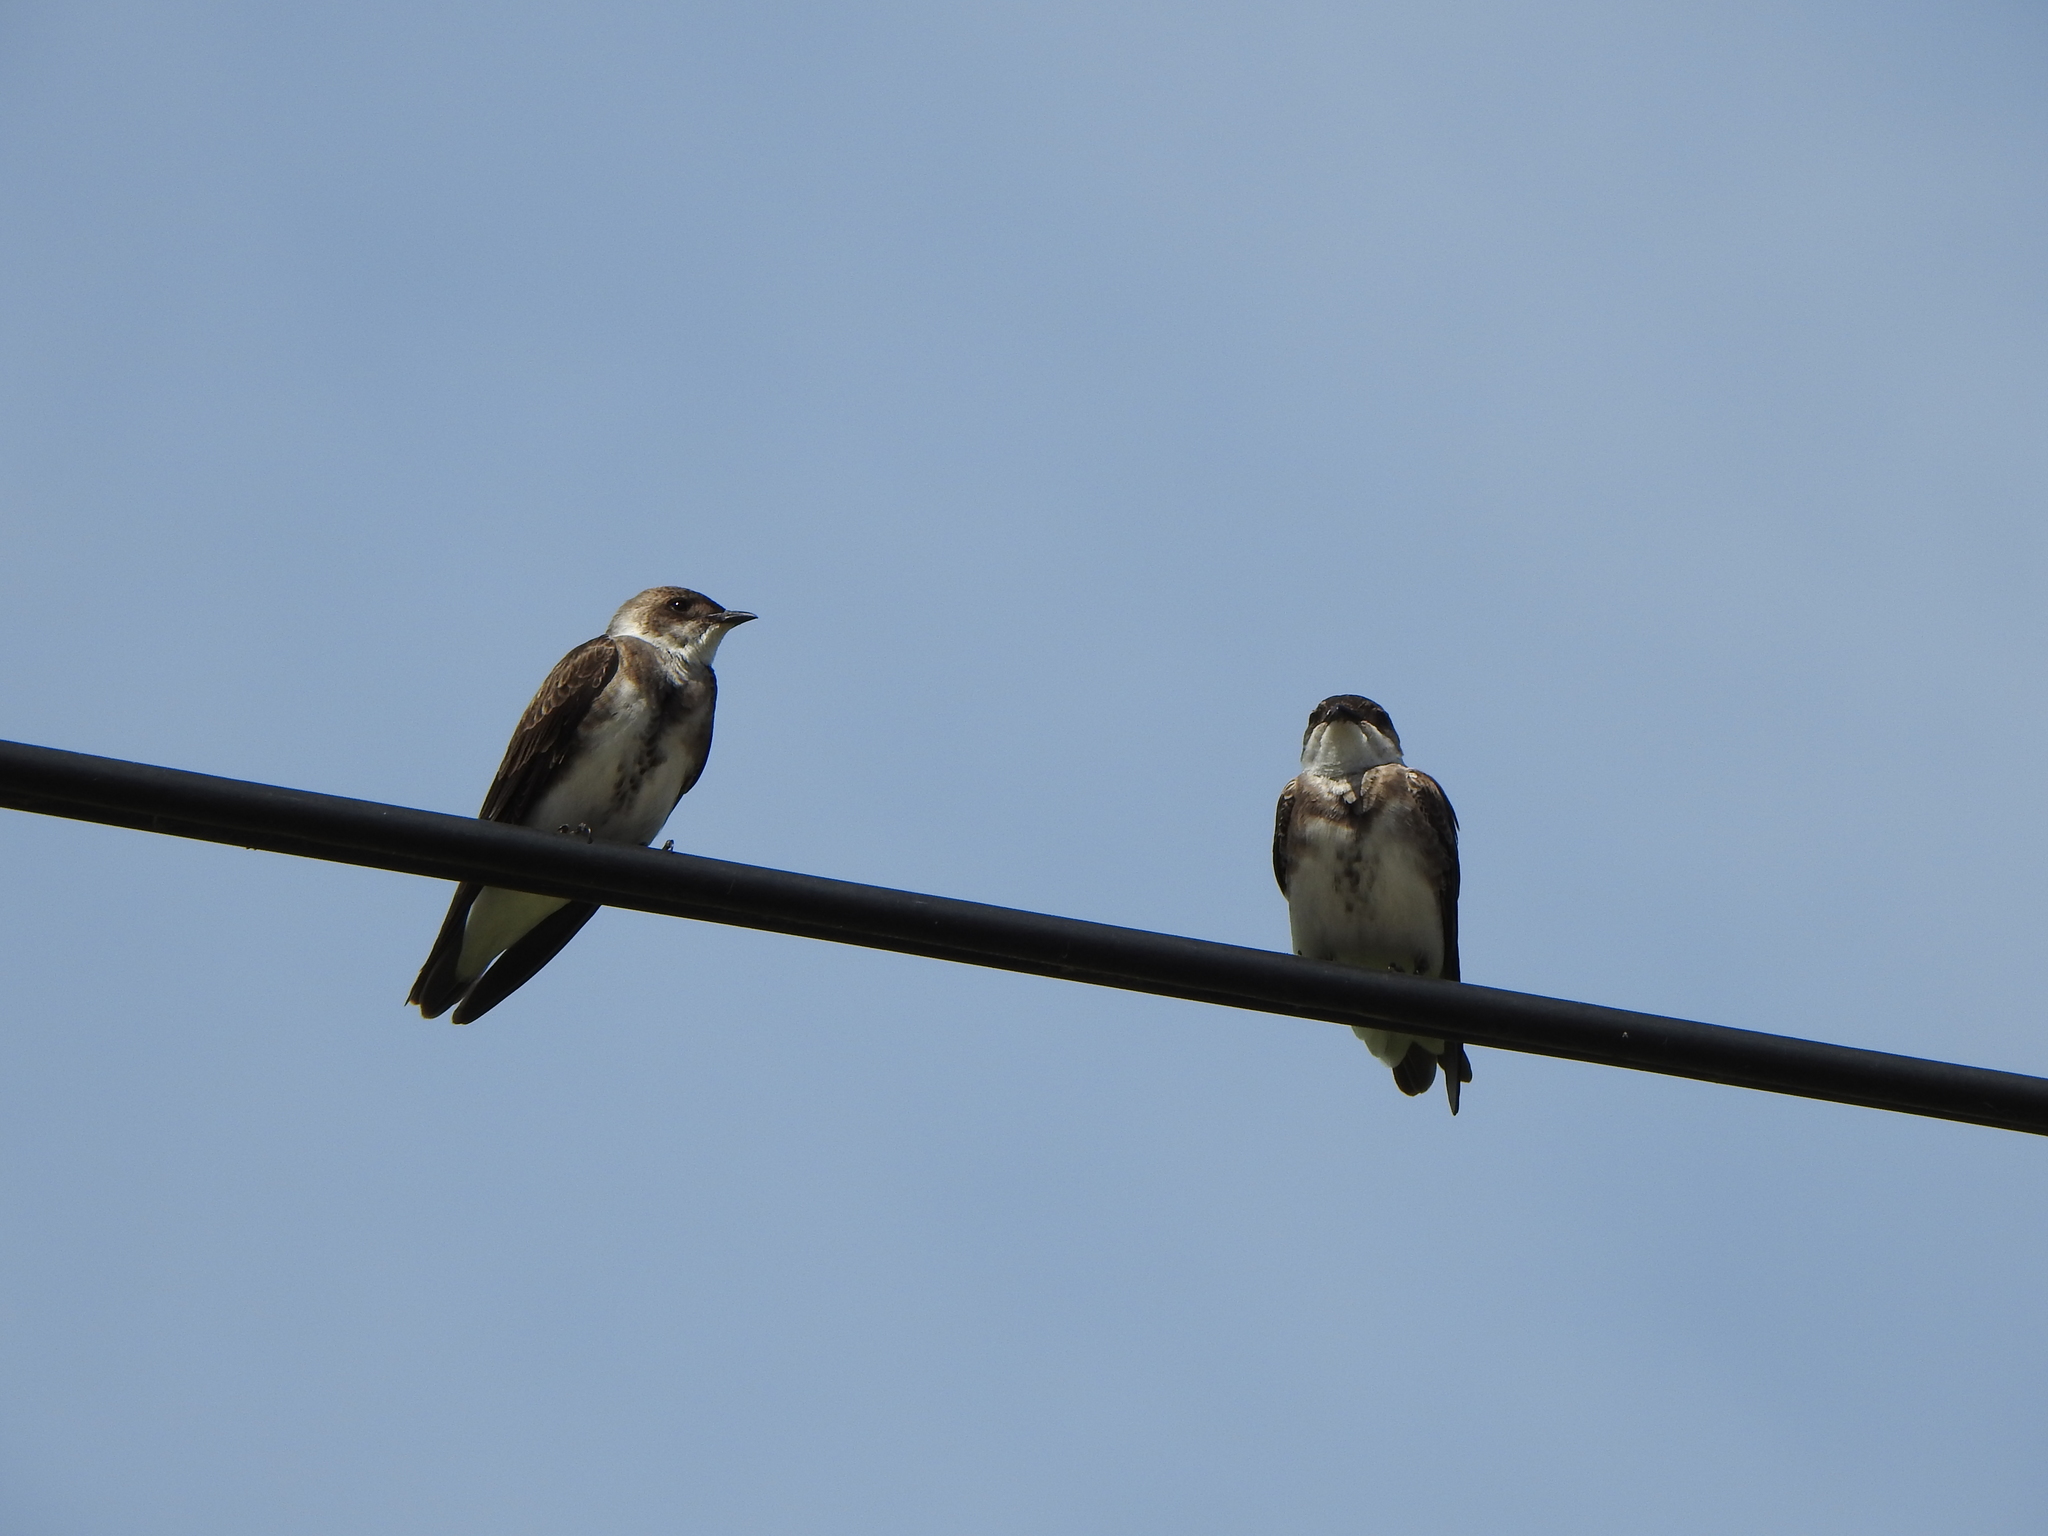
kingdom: Animalia
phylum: Chordata
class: Aves
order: Passeriformes
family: Hirundinidae
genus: Progne
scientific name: Progne tapera
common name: Brown-chested martin
